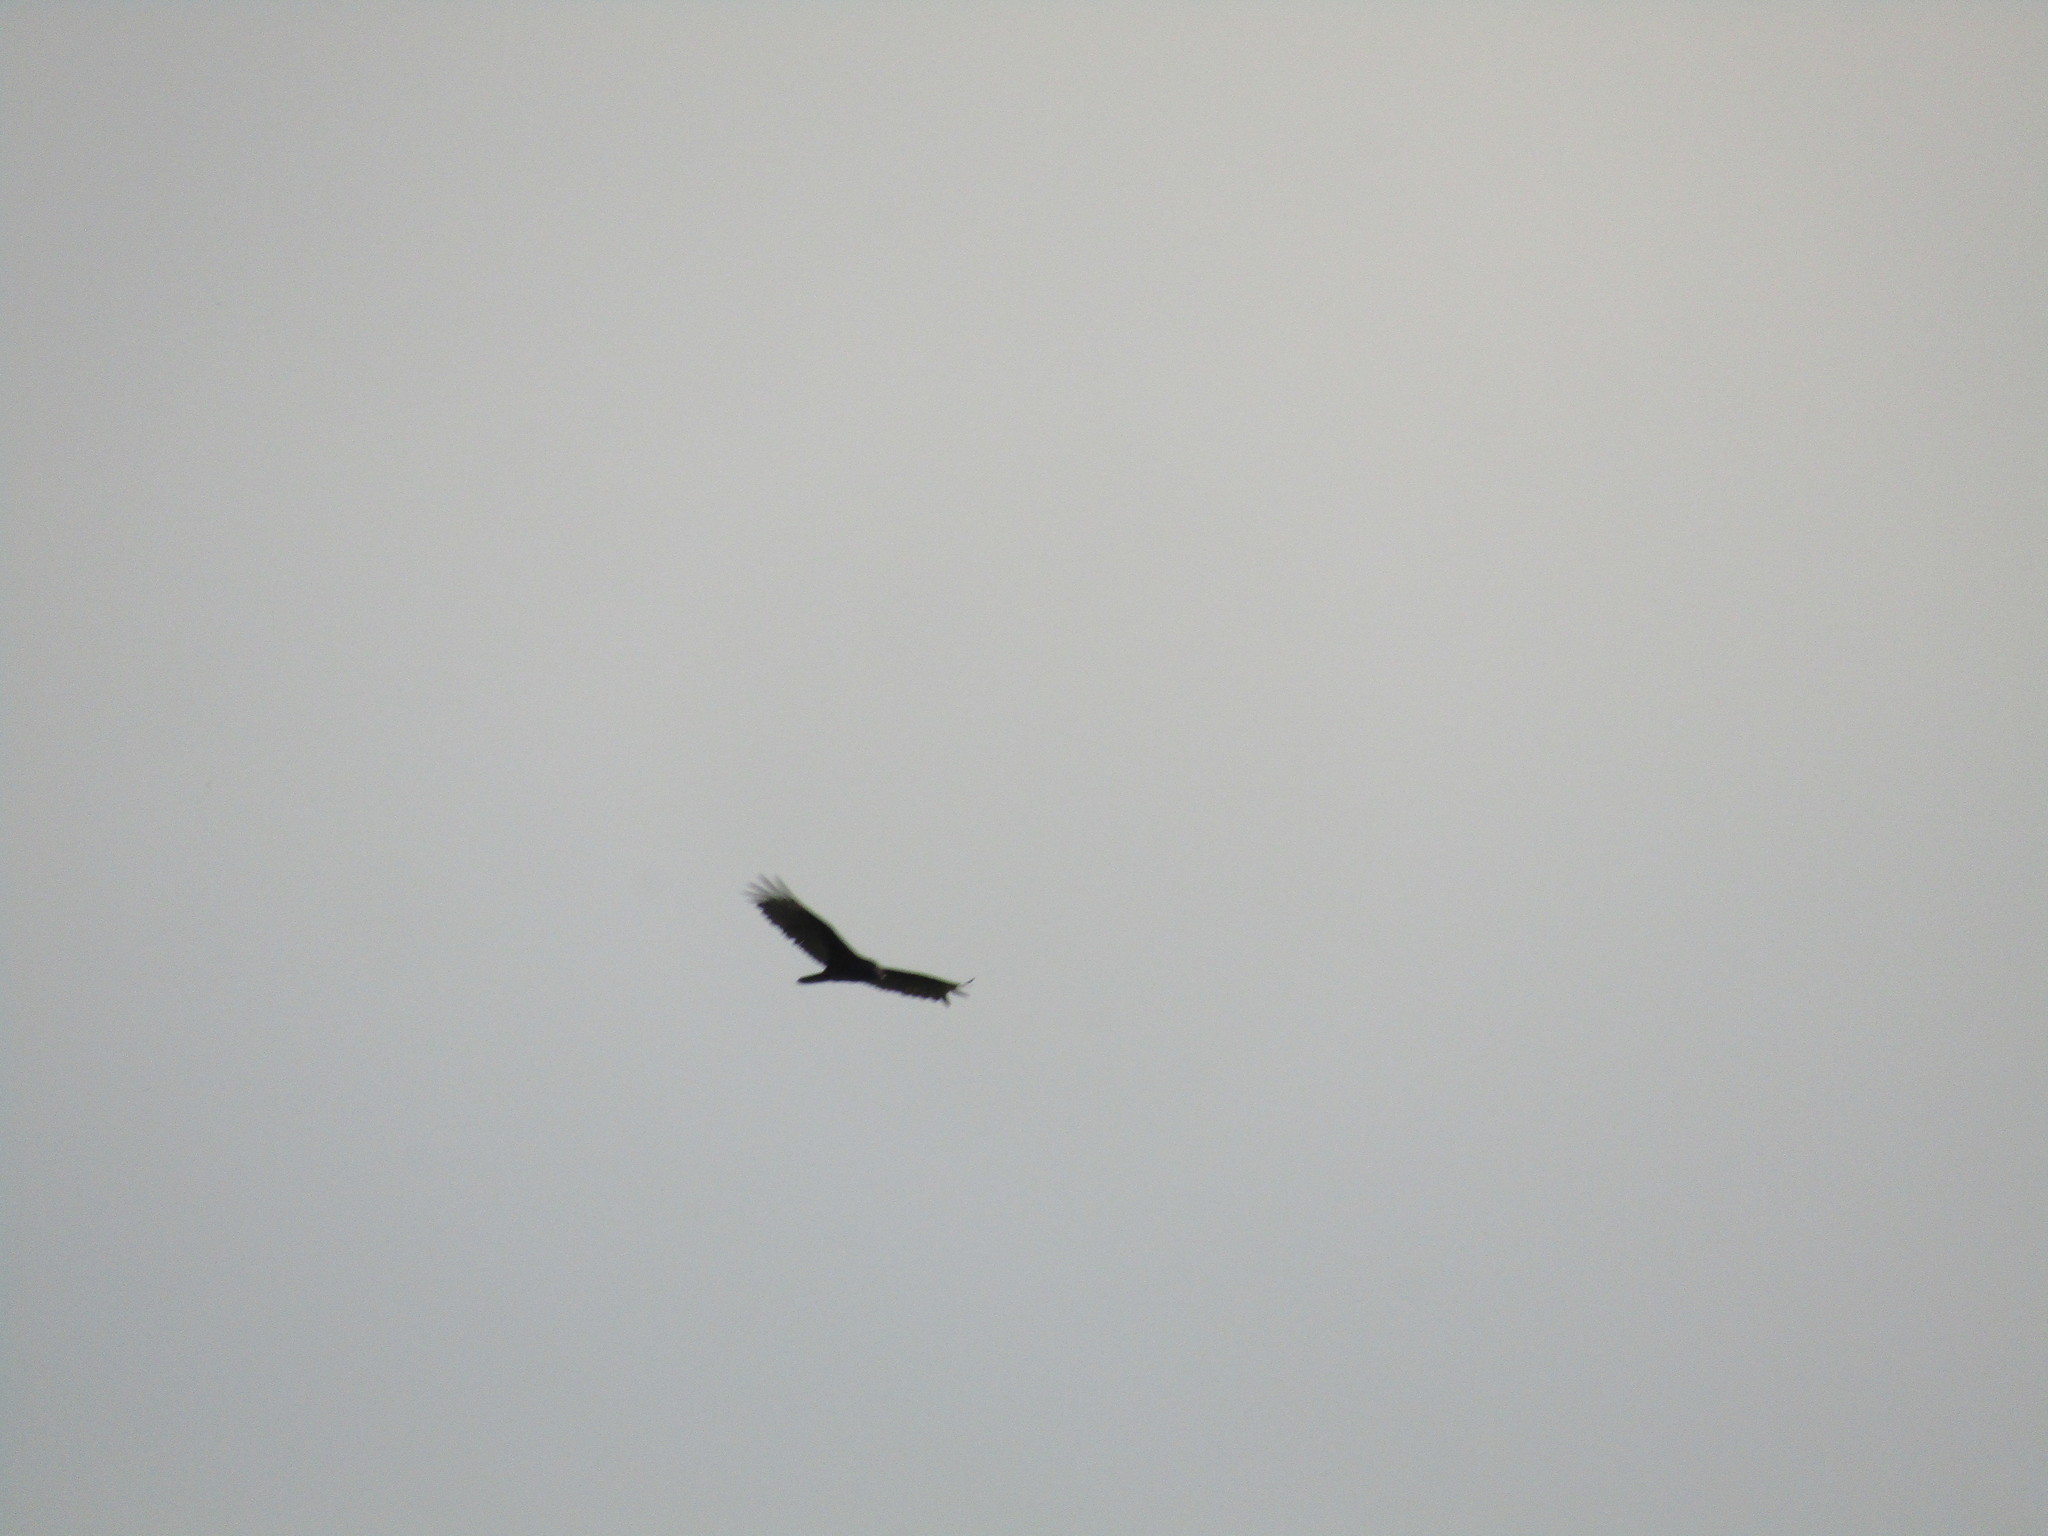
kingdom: Animalia
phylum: Chordata
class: Aves
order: Accipitriformes
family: Cathartidae
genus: Cathartes
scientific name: Cathartes aura
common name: Turkey vulture
